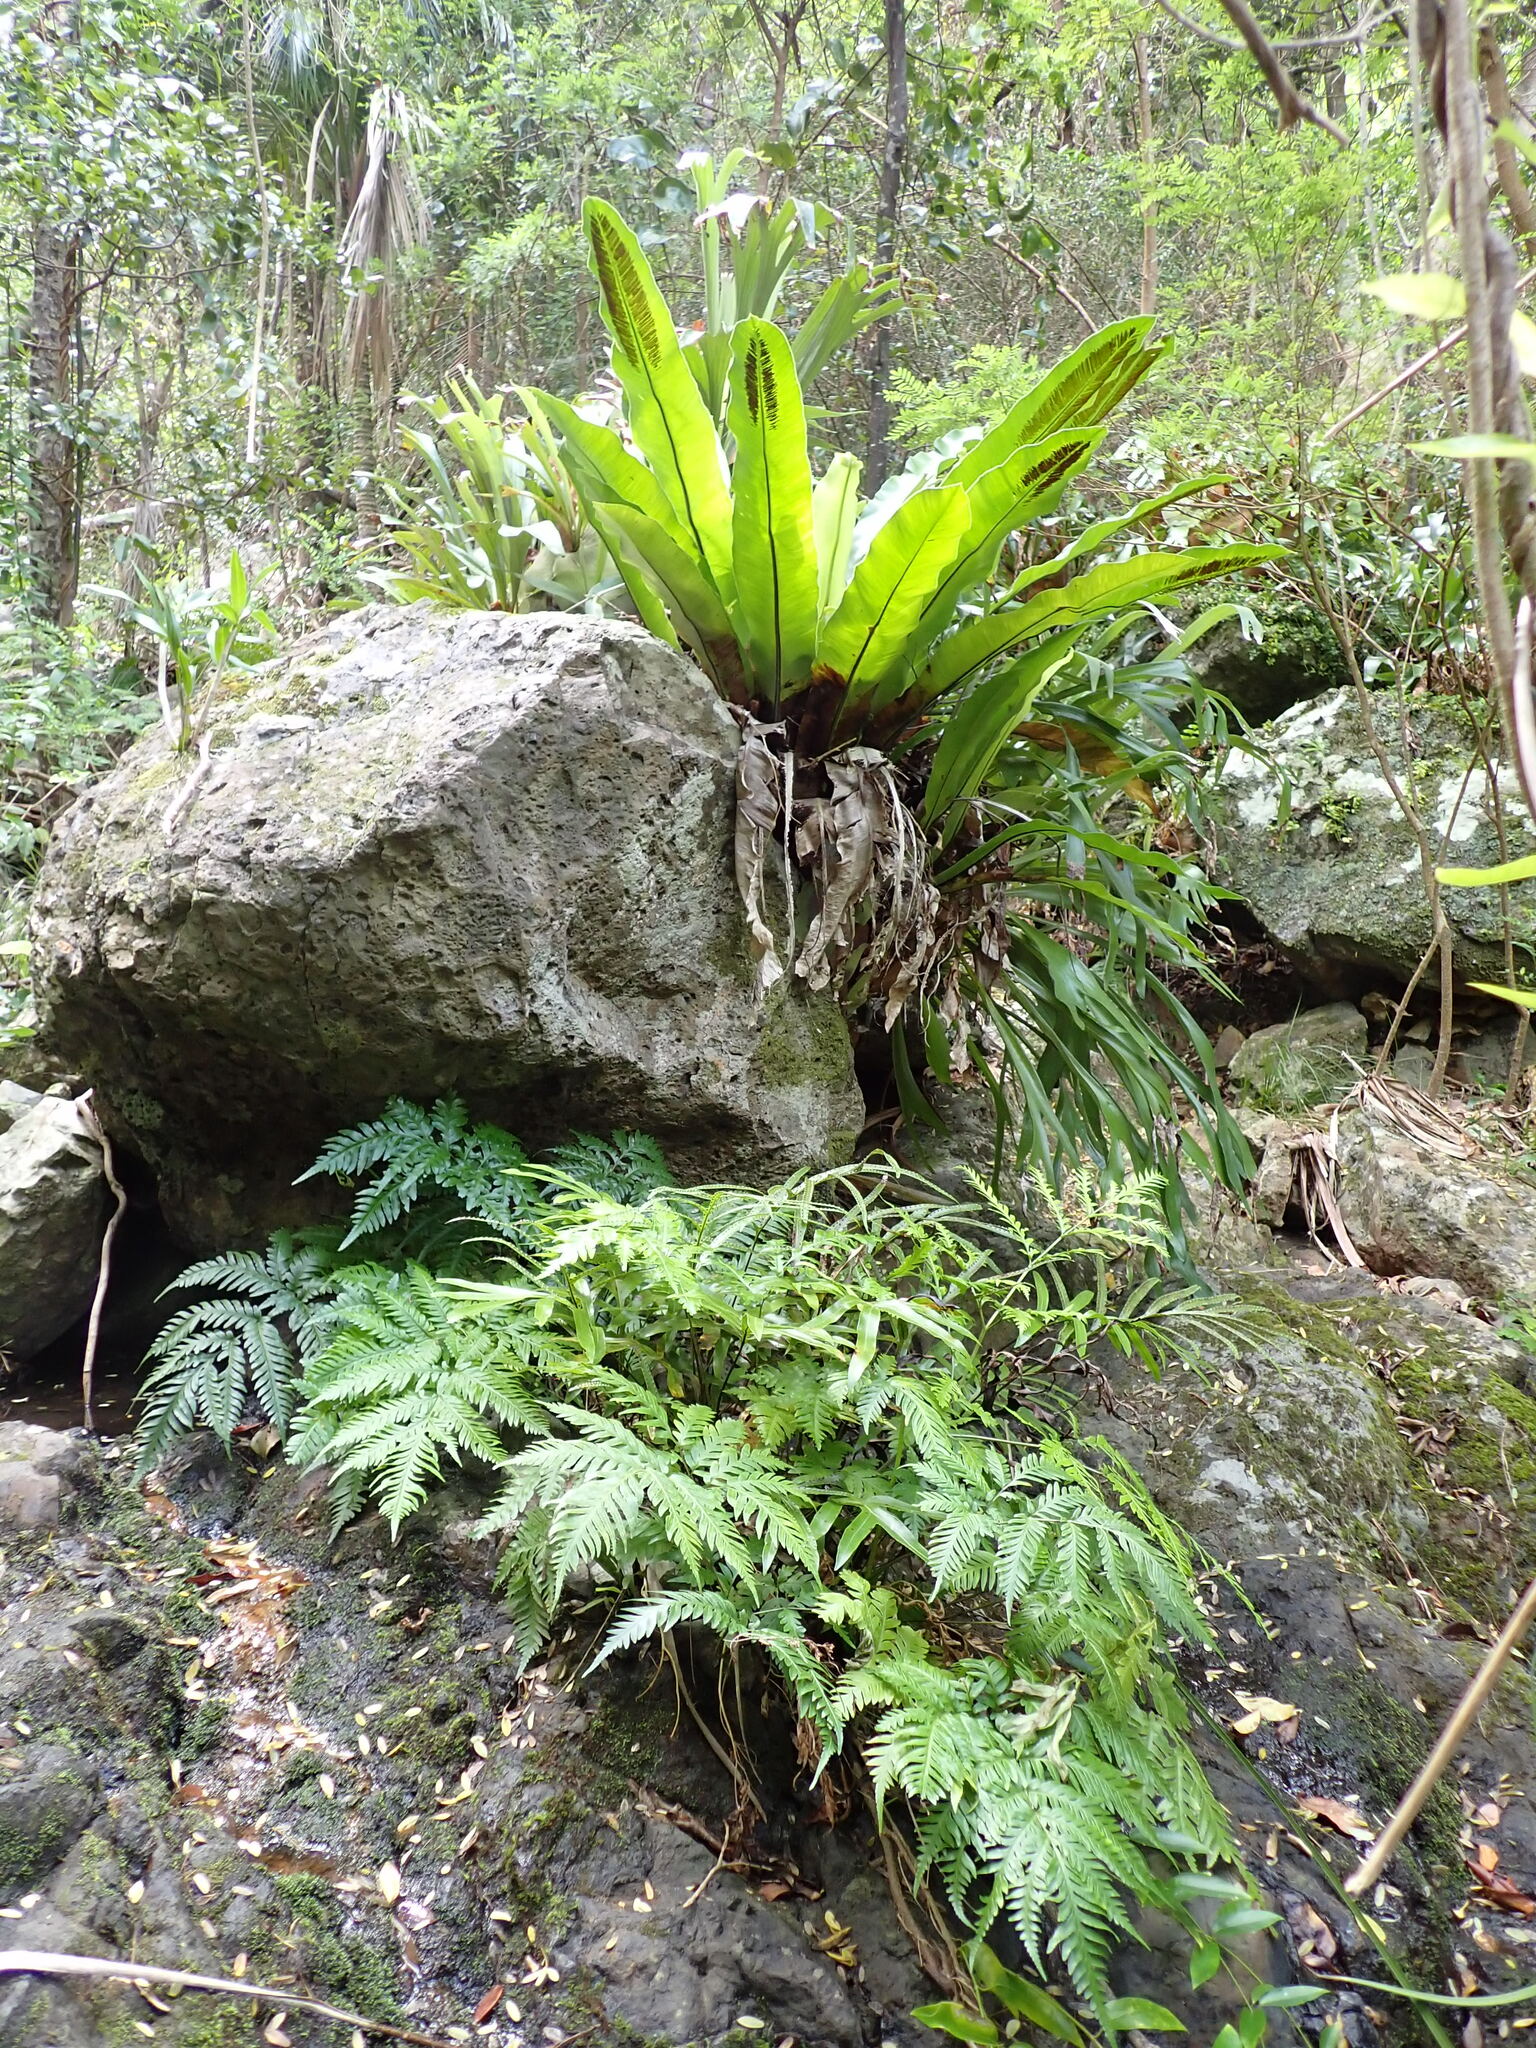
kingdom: Plantae
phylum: Tracheophyta
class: Polypodiopsida
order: Polypodiales
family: Polypodiaceae
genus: Platycerium
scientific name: Platycerium bifurcatum
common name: Elkhorn fern
